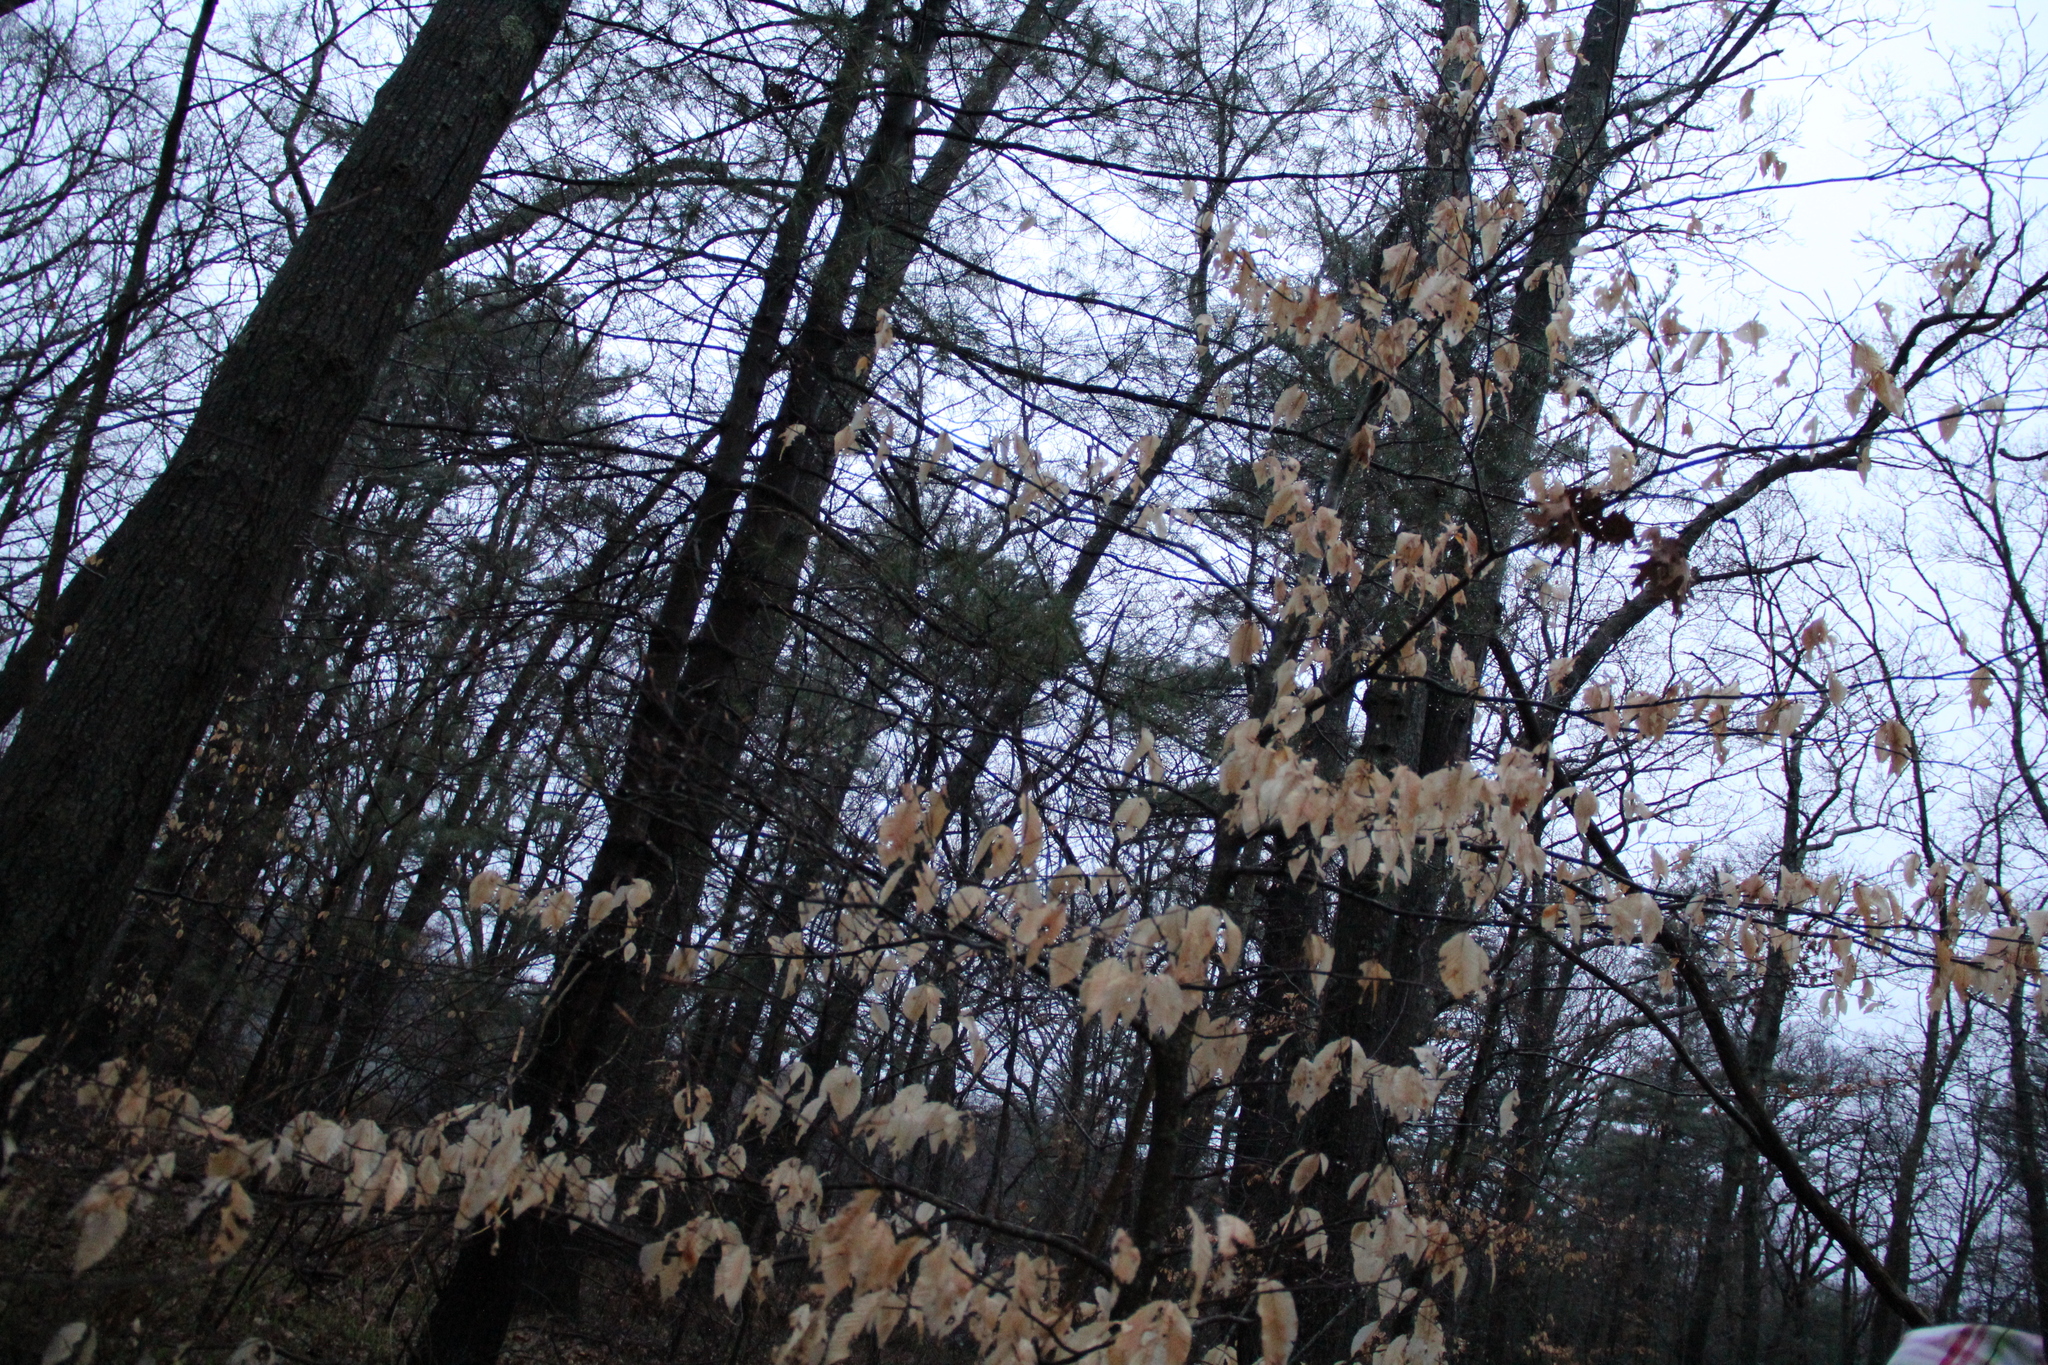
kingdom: Plantae
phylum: Tracheophyta
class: Magnoliopsida
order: Fagales
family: Fagaceae
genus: Fagus
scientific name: Fagus grandifolia
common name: American beech
